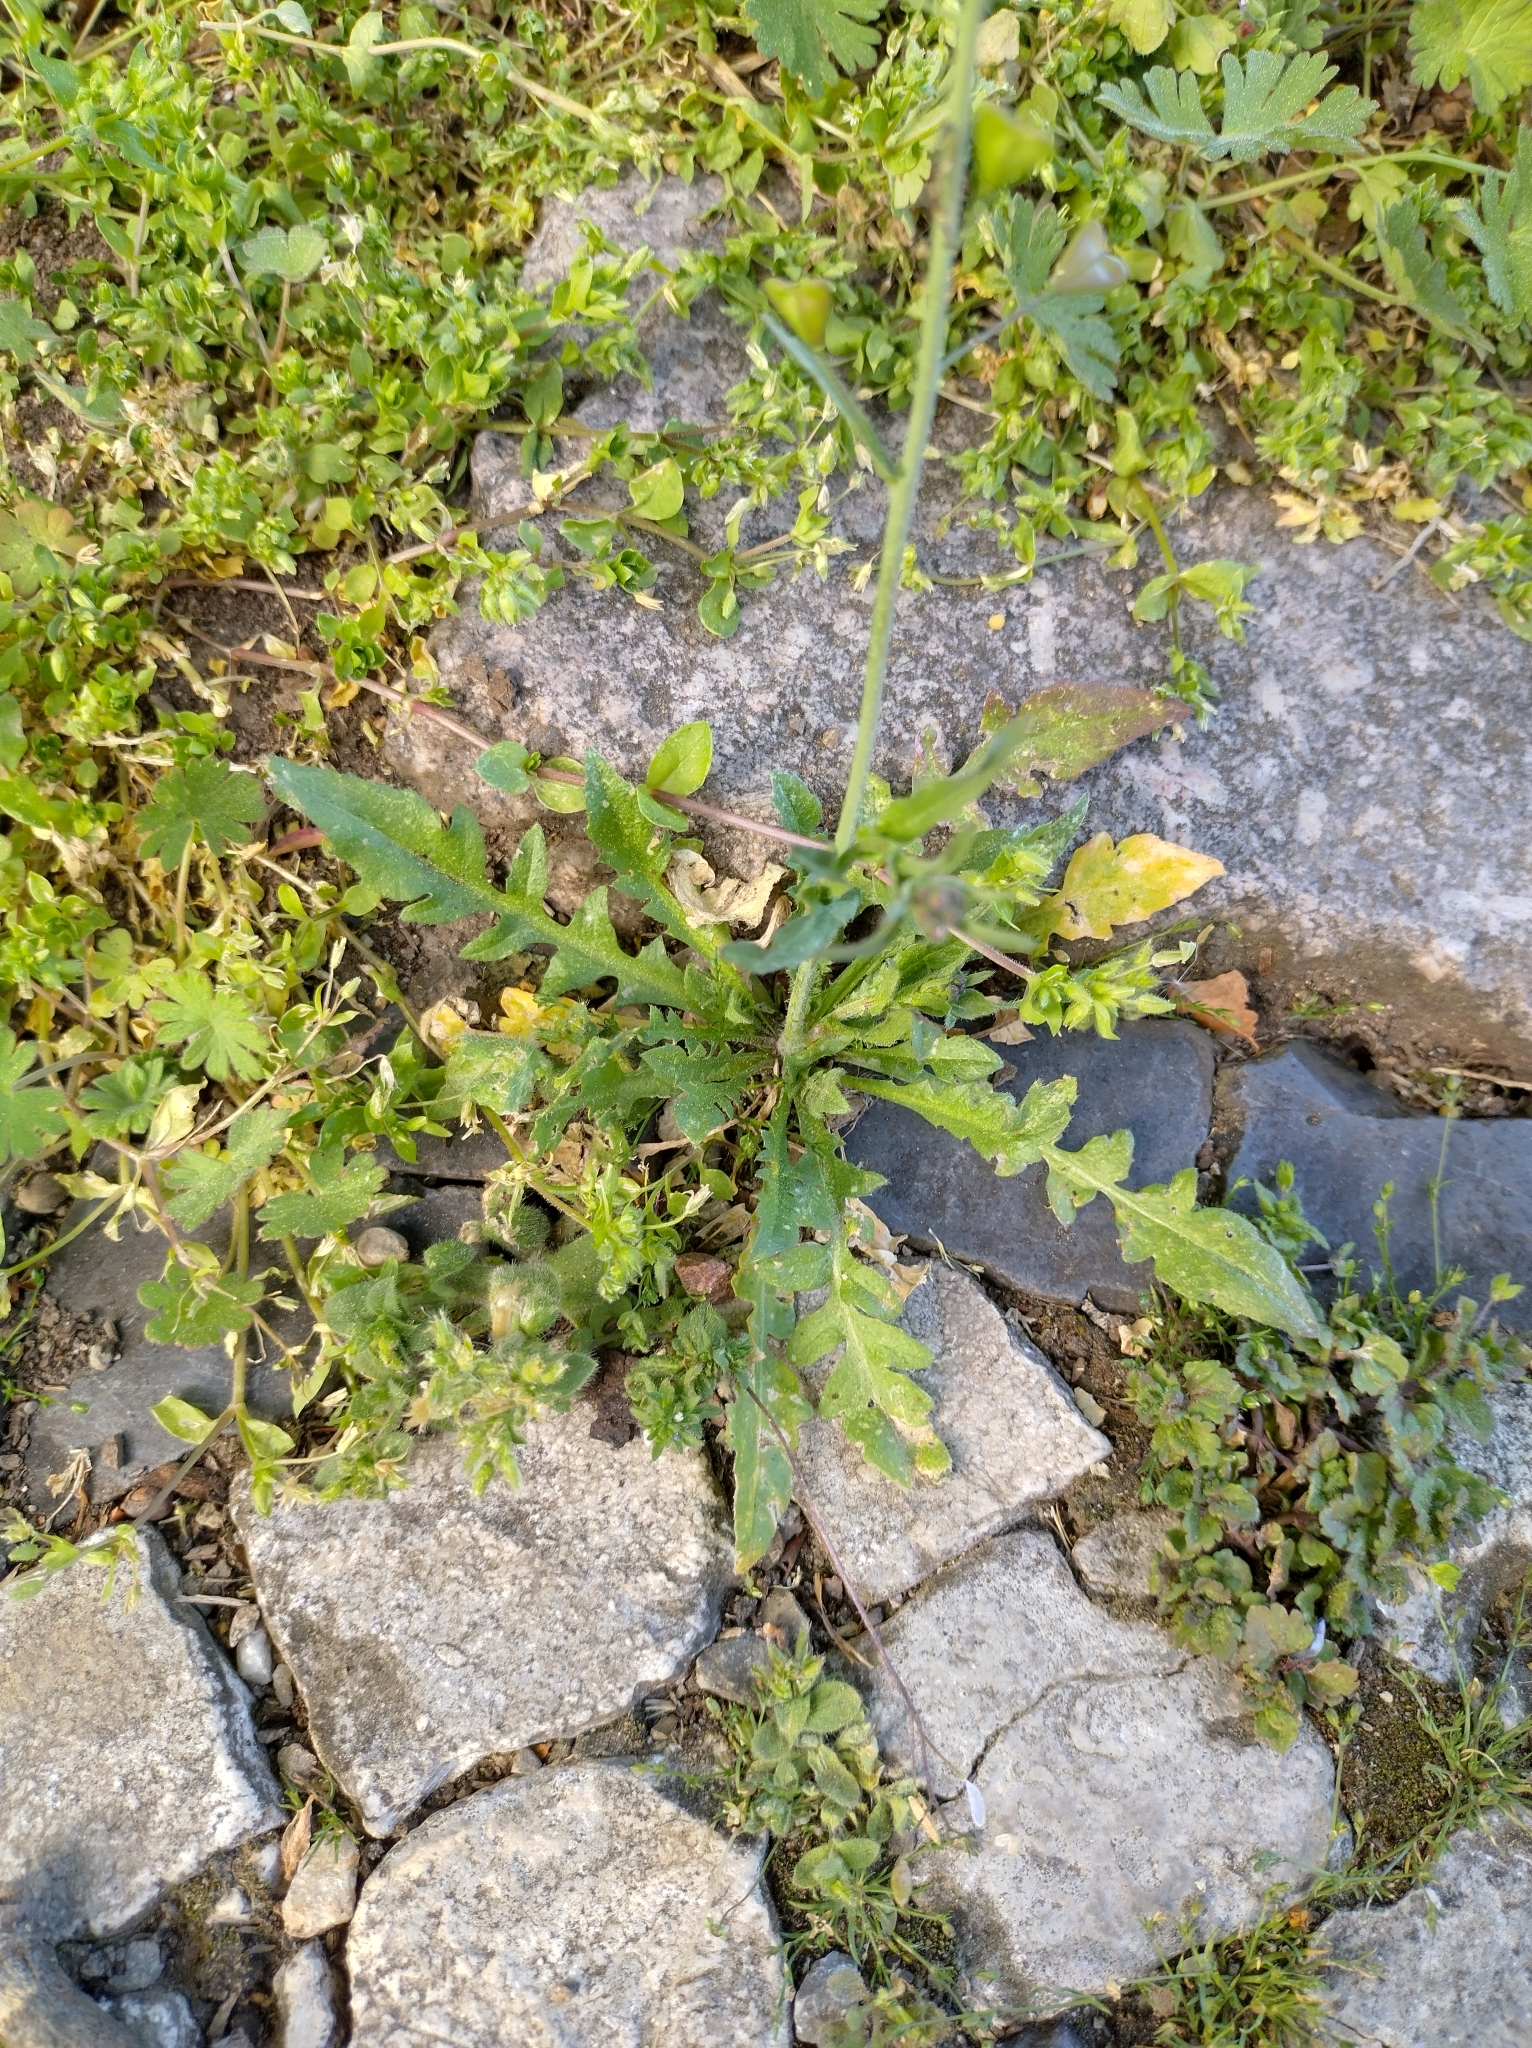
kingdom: Plantae
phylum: Tracheophyta
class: Magnoliopsida
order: Brassicales
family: Brassicaceae
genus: Capsella
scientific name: Capsella bursa-pastoris
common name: Shepherd's purse
